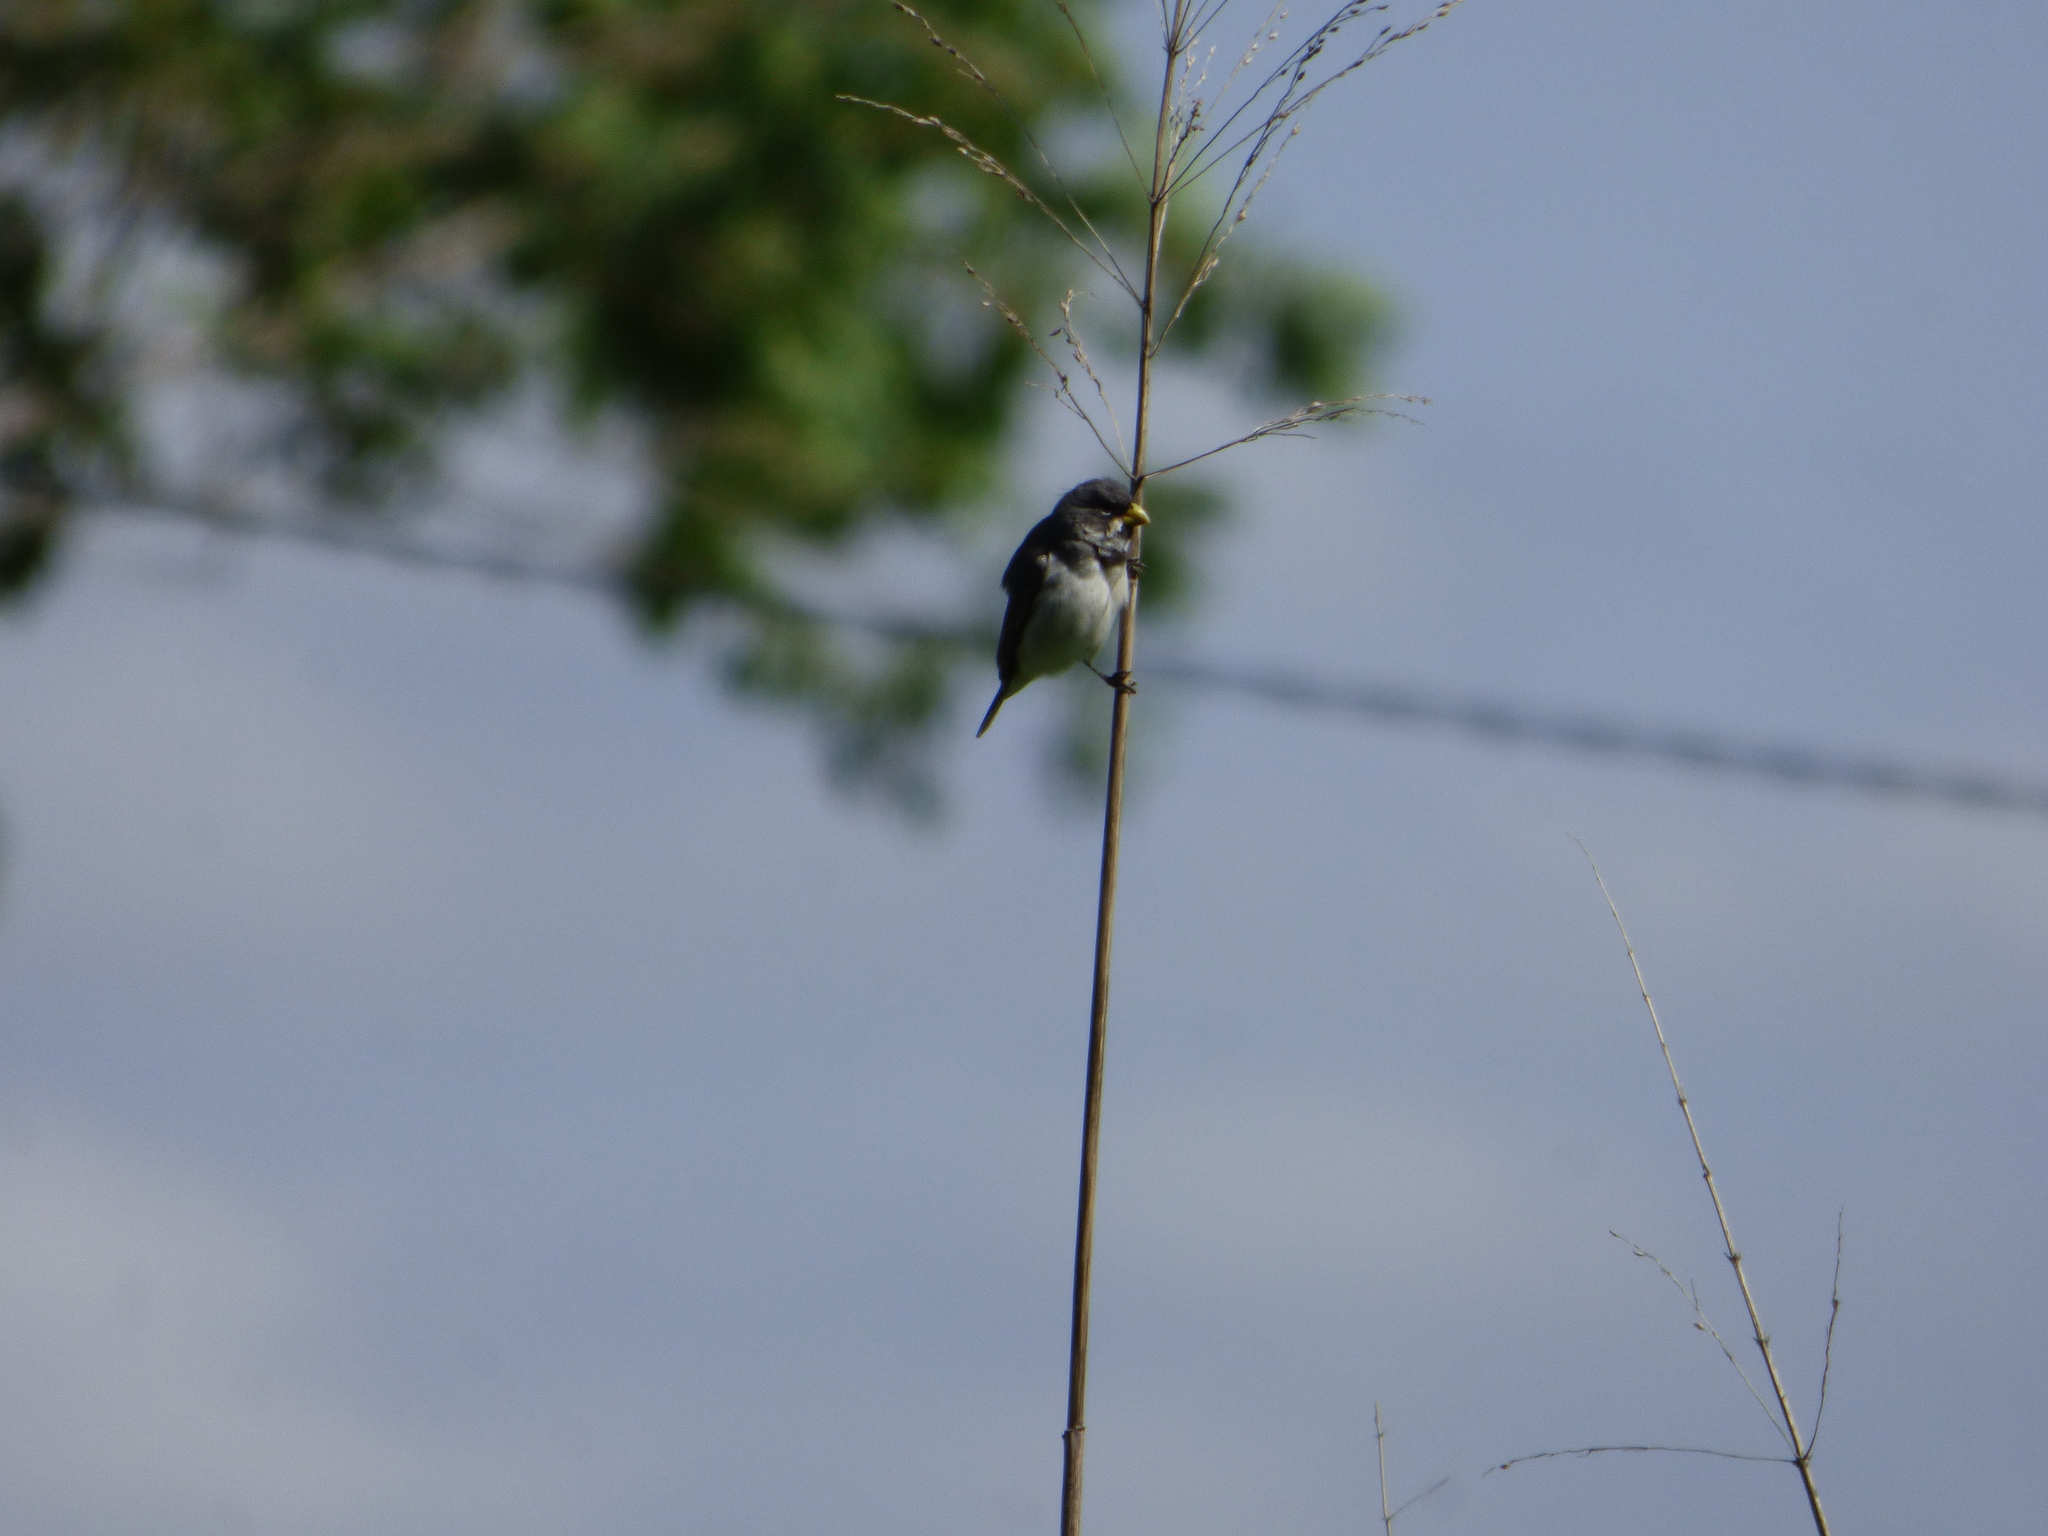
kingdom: Animalia
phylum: Chordata
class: Aves
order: Passeriformes
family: Thraupidae
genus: Sporophila
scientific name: Sporophila caerulescens
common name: Double-collared seedeater
